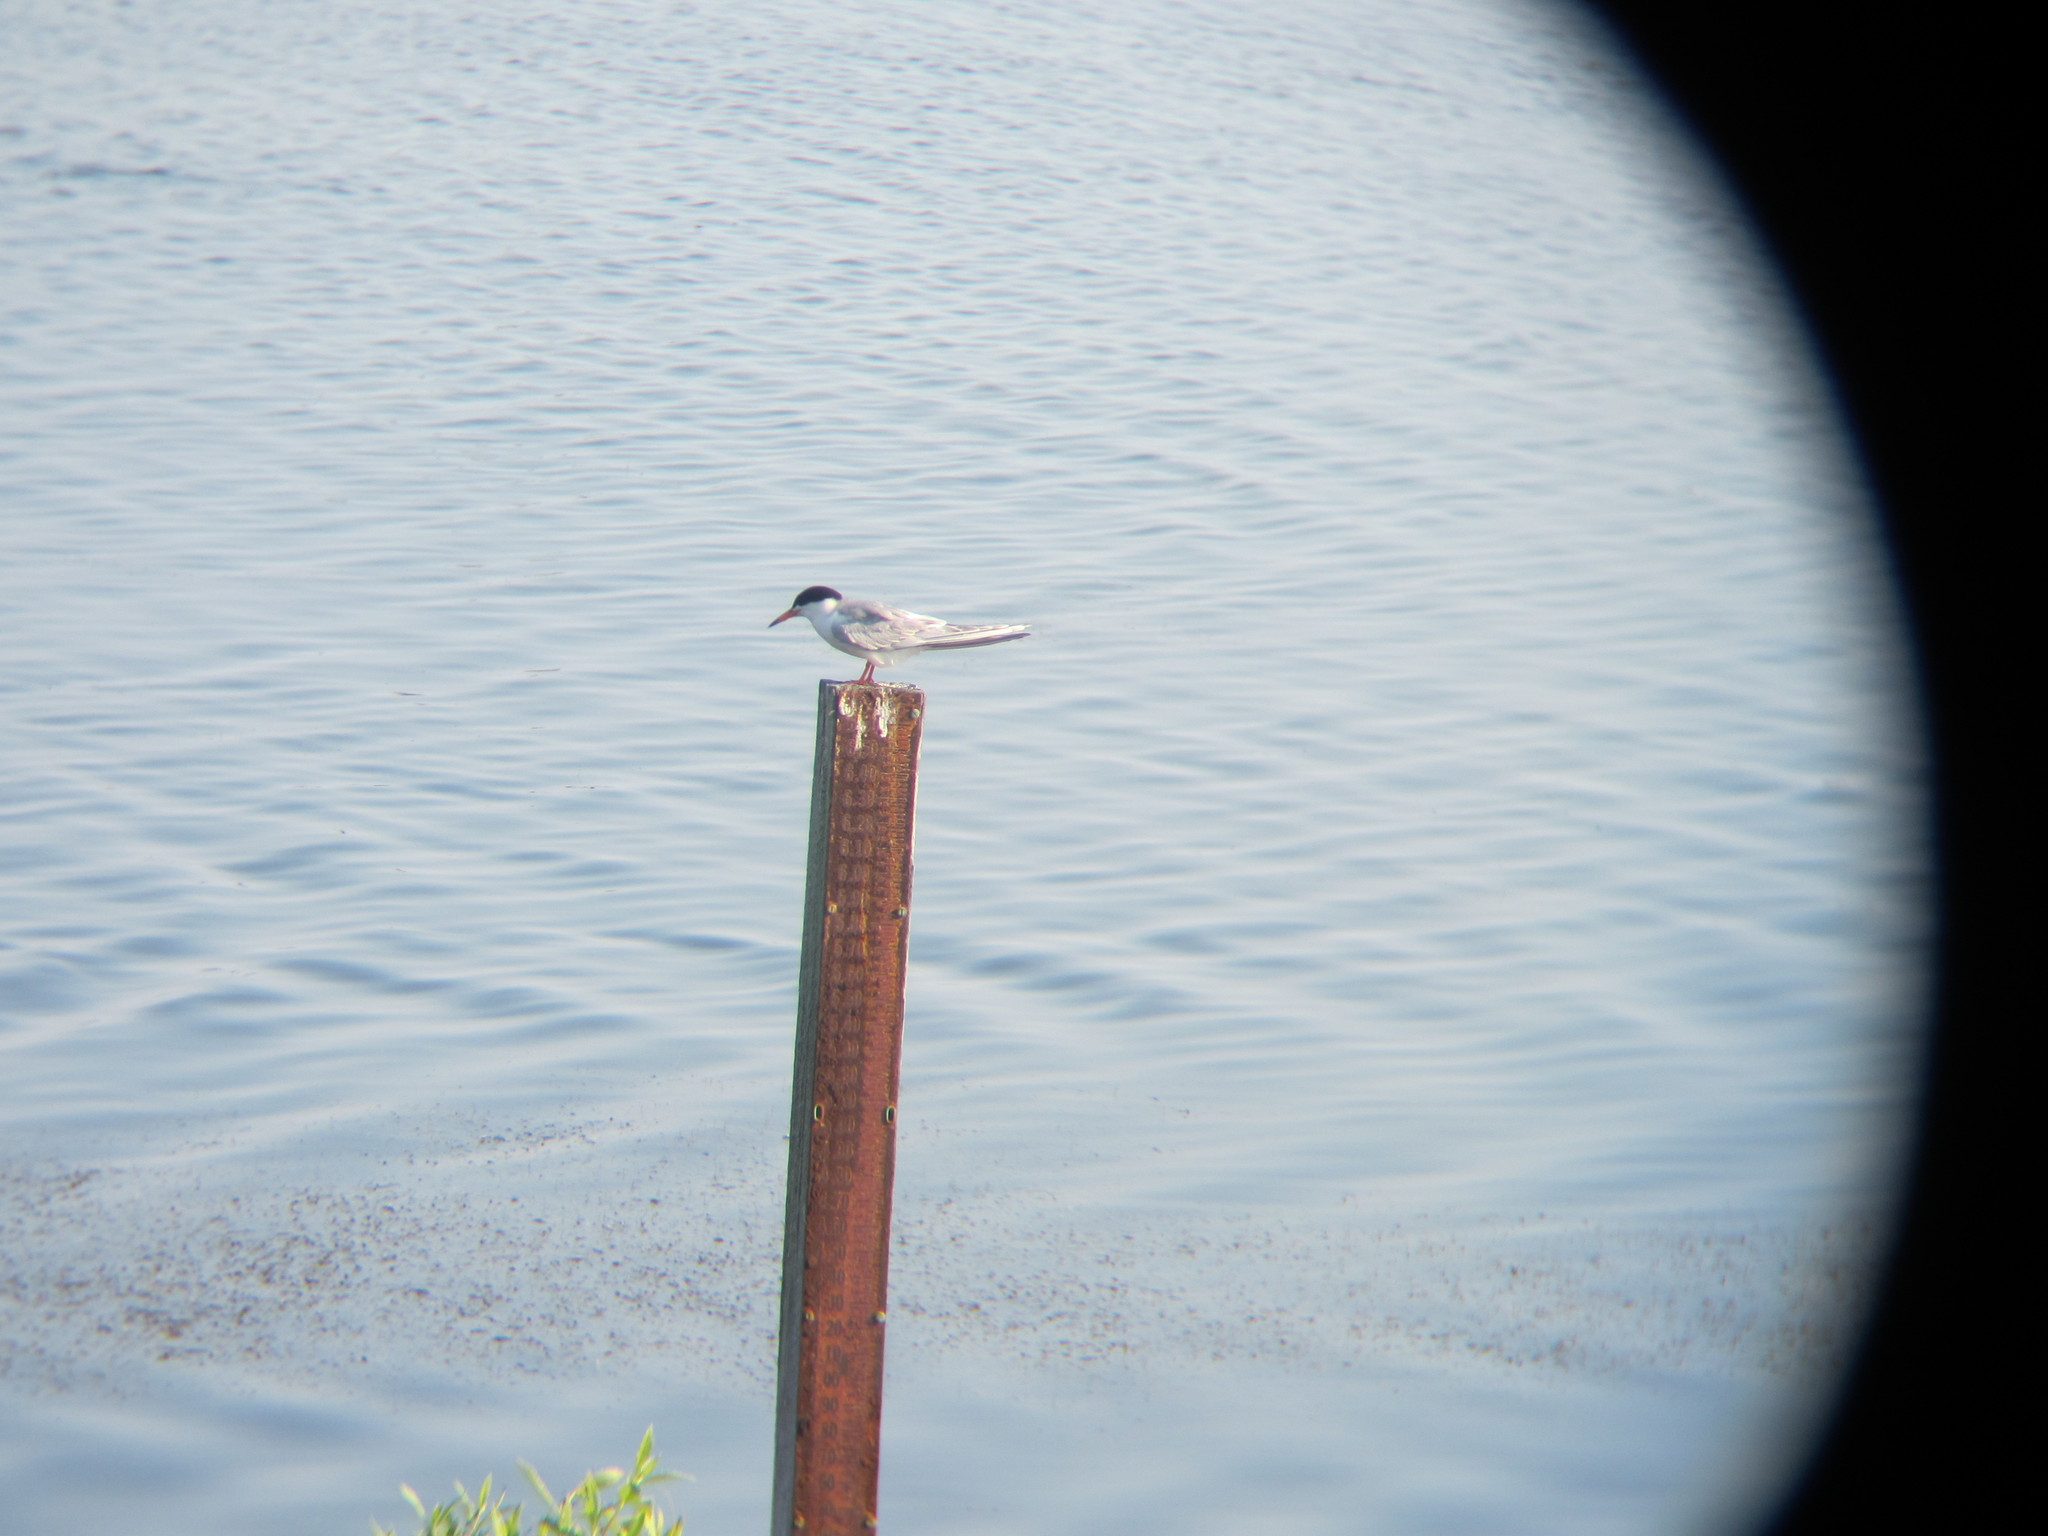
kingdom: Animalia
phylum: Chordata
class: Aves
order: Charadriiformes
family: Laridae
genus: Sterna
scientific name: Sterna forsteri
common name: Forster's tern
